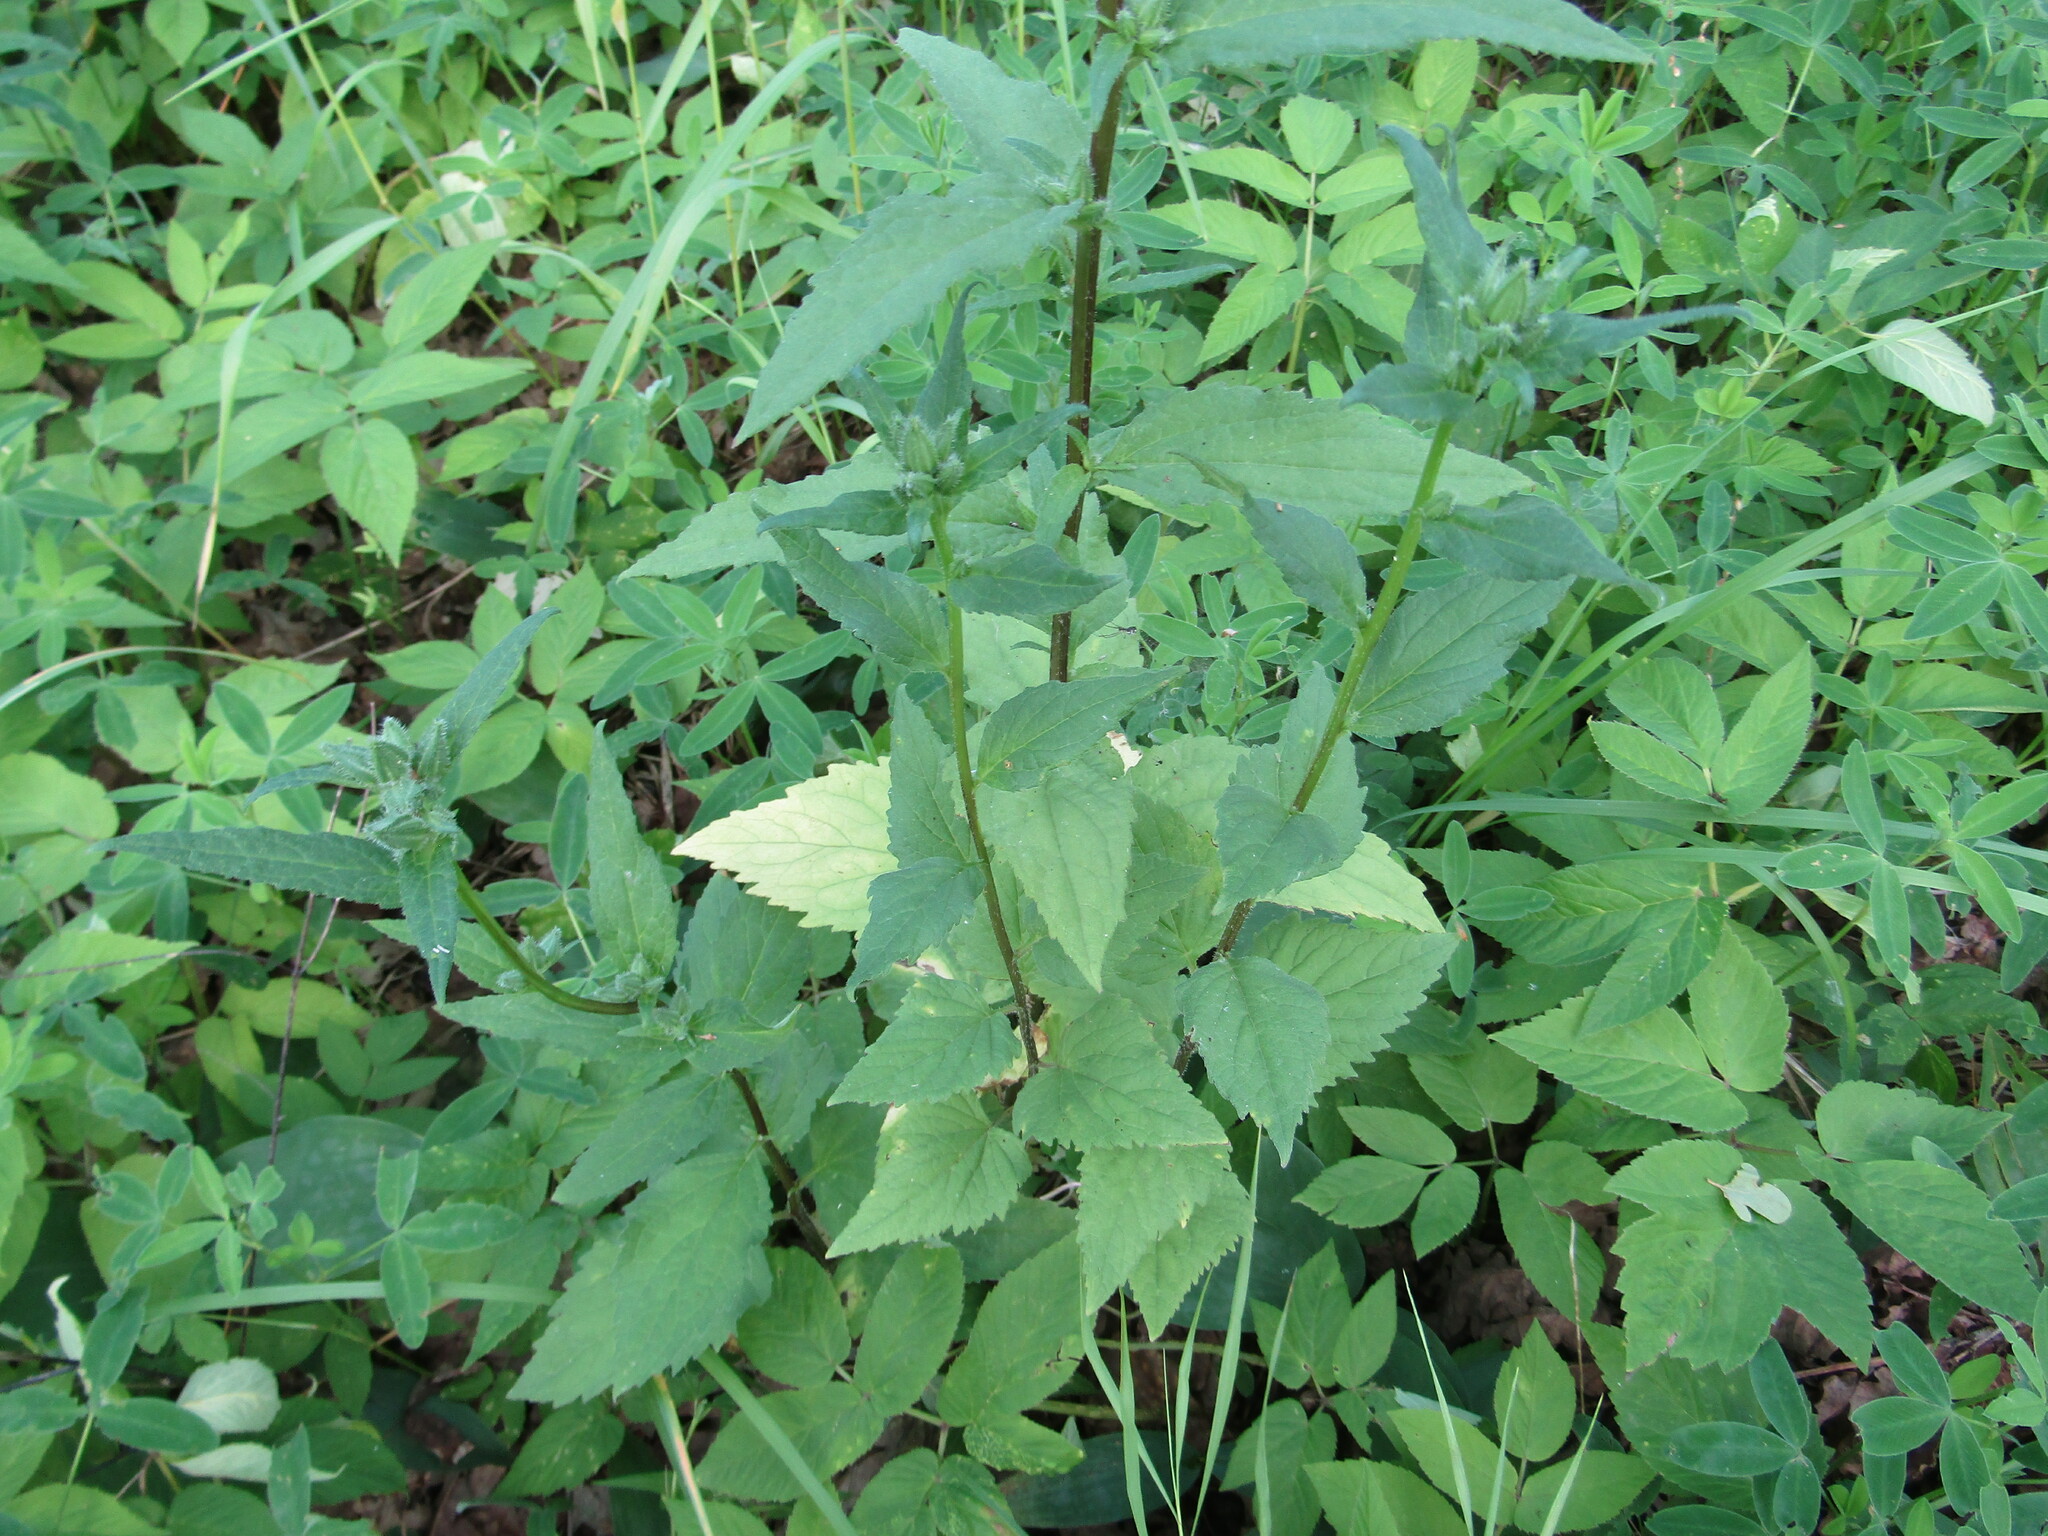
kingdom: Plantae
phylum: Tracheophyta
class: Magnoliopsida
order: Asterales
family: Campanulaceae
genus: Campanula
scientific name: Campanula trachelium
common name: Nettle-leaved bellflower
